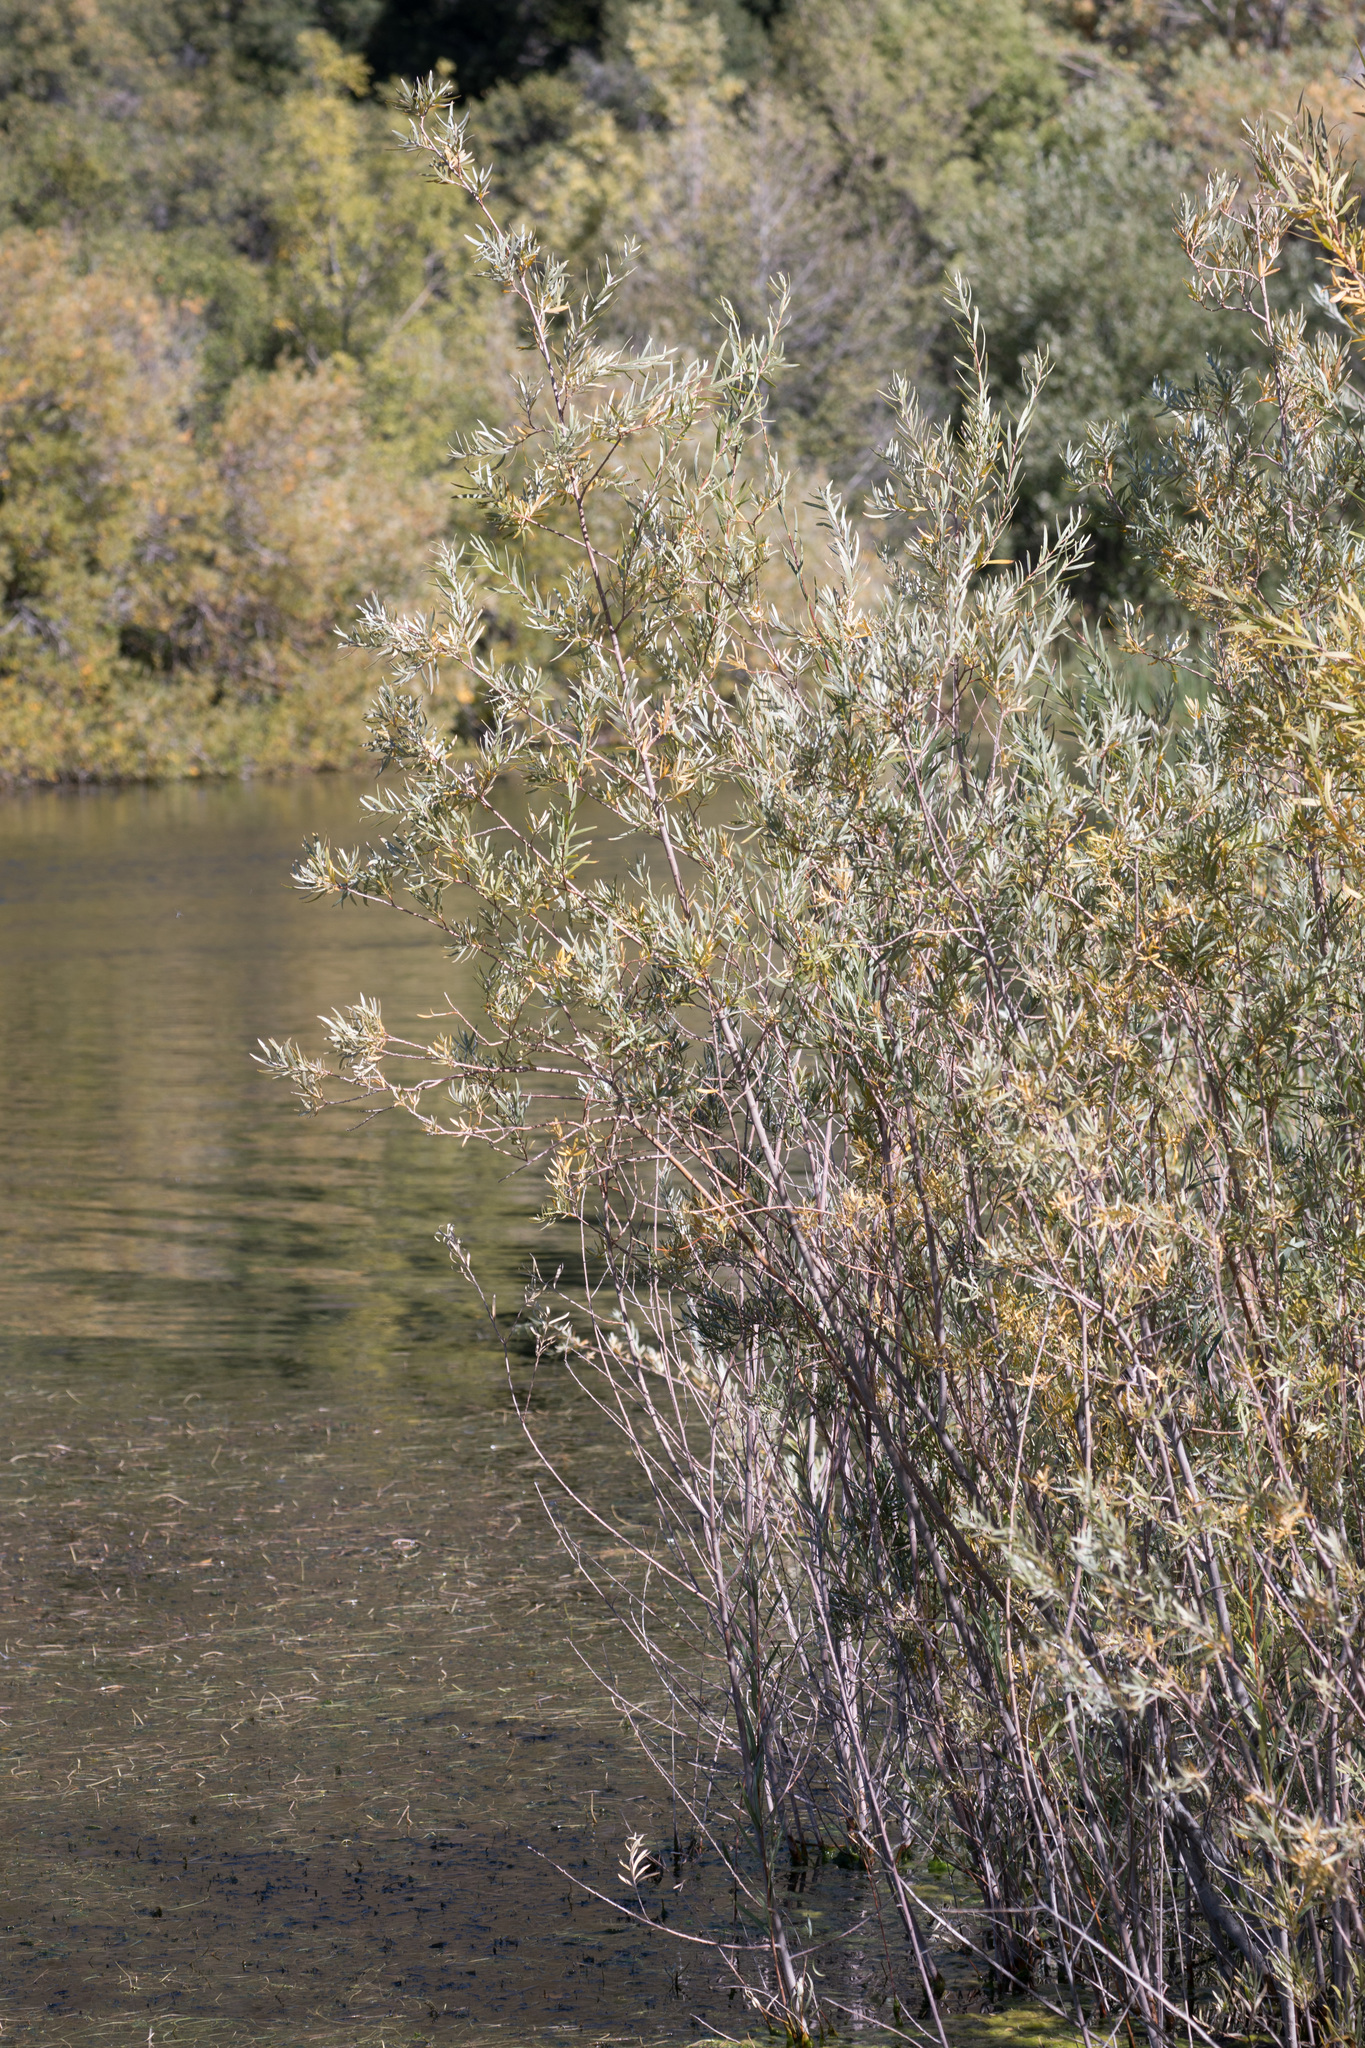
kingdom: Plantae
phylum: Tracheophyta
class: Magnoliopsida
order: Malpighiales
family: Salicaceae
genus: Salix
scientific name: Salix exigua
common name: Coyote willow
